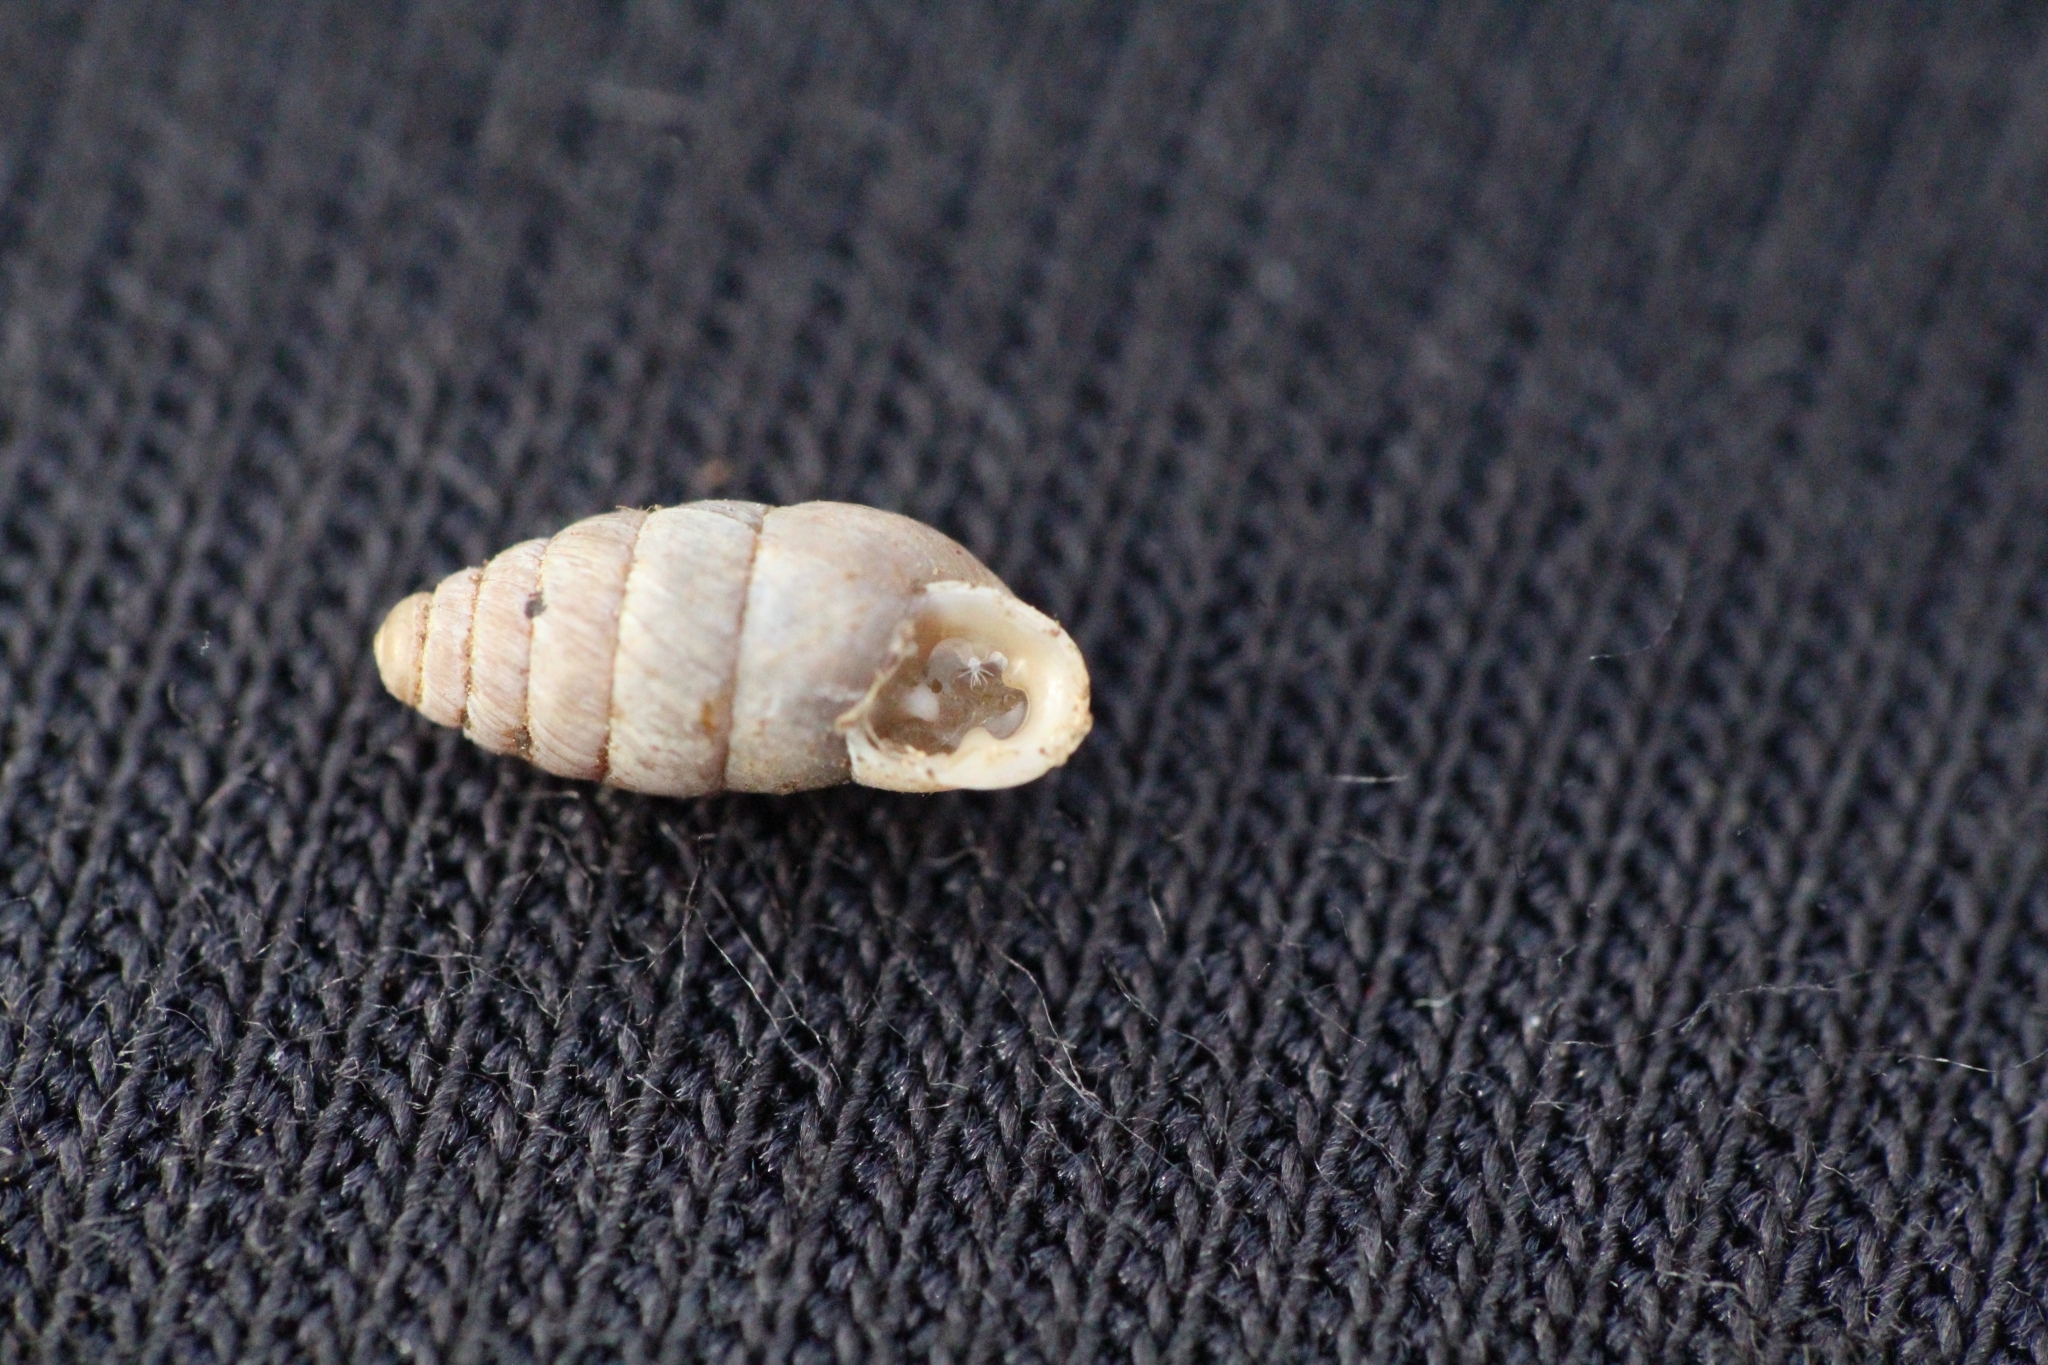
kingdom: Animalia
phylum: Mollusca
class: Gastropoda
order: Stylommatophora
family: Enidae
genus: Jaminia
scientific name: Jaminia quadridens
